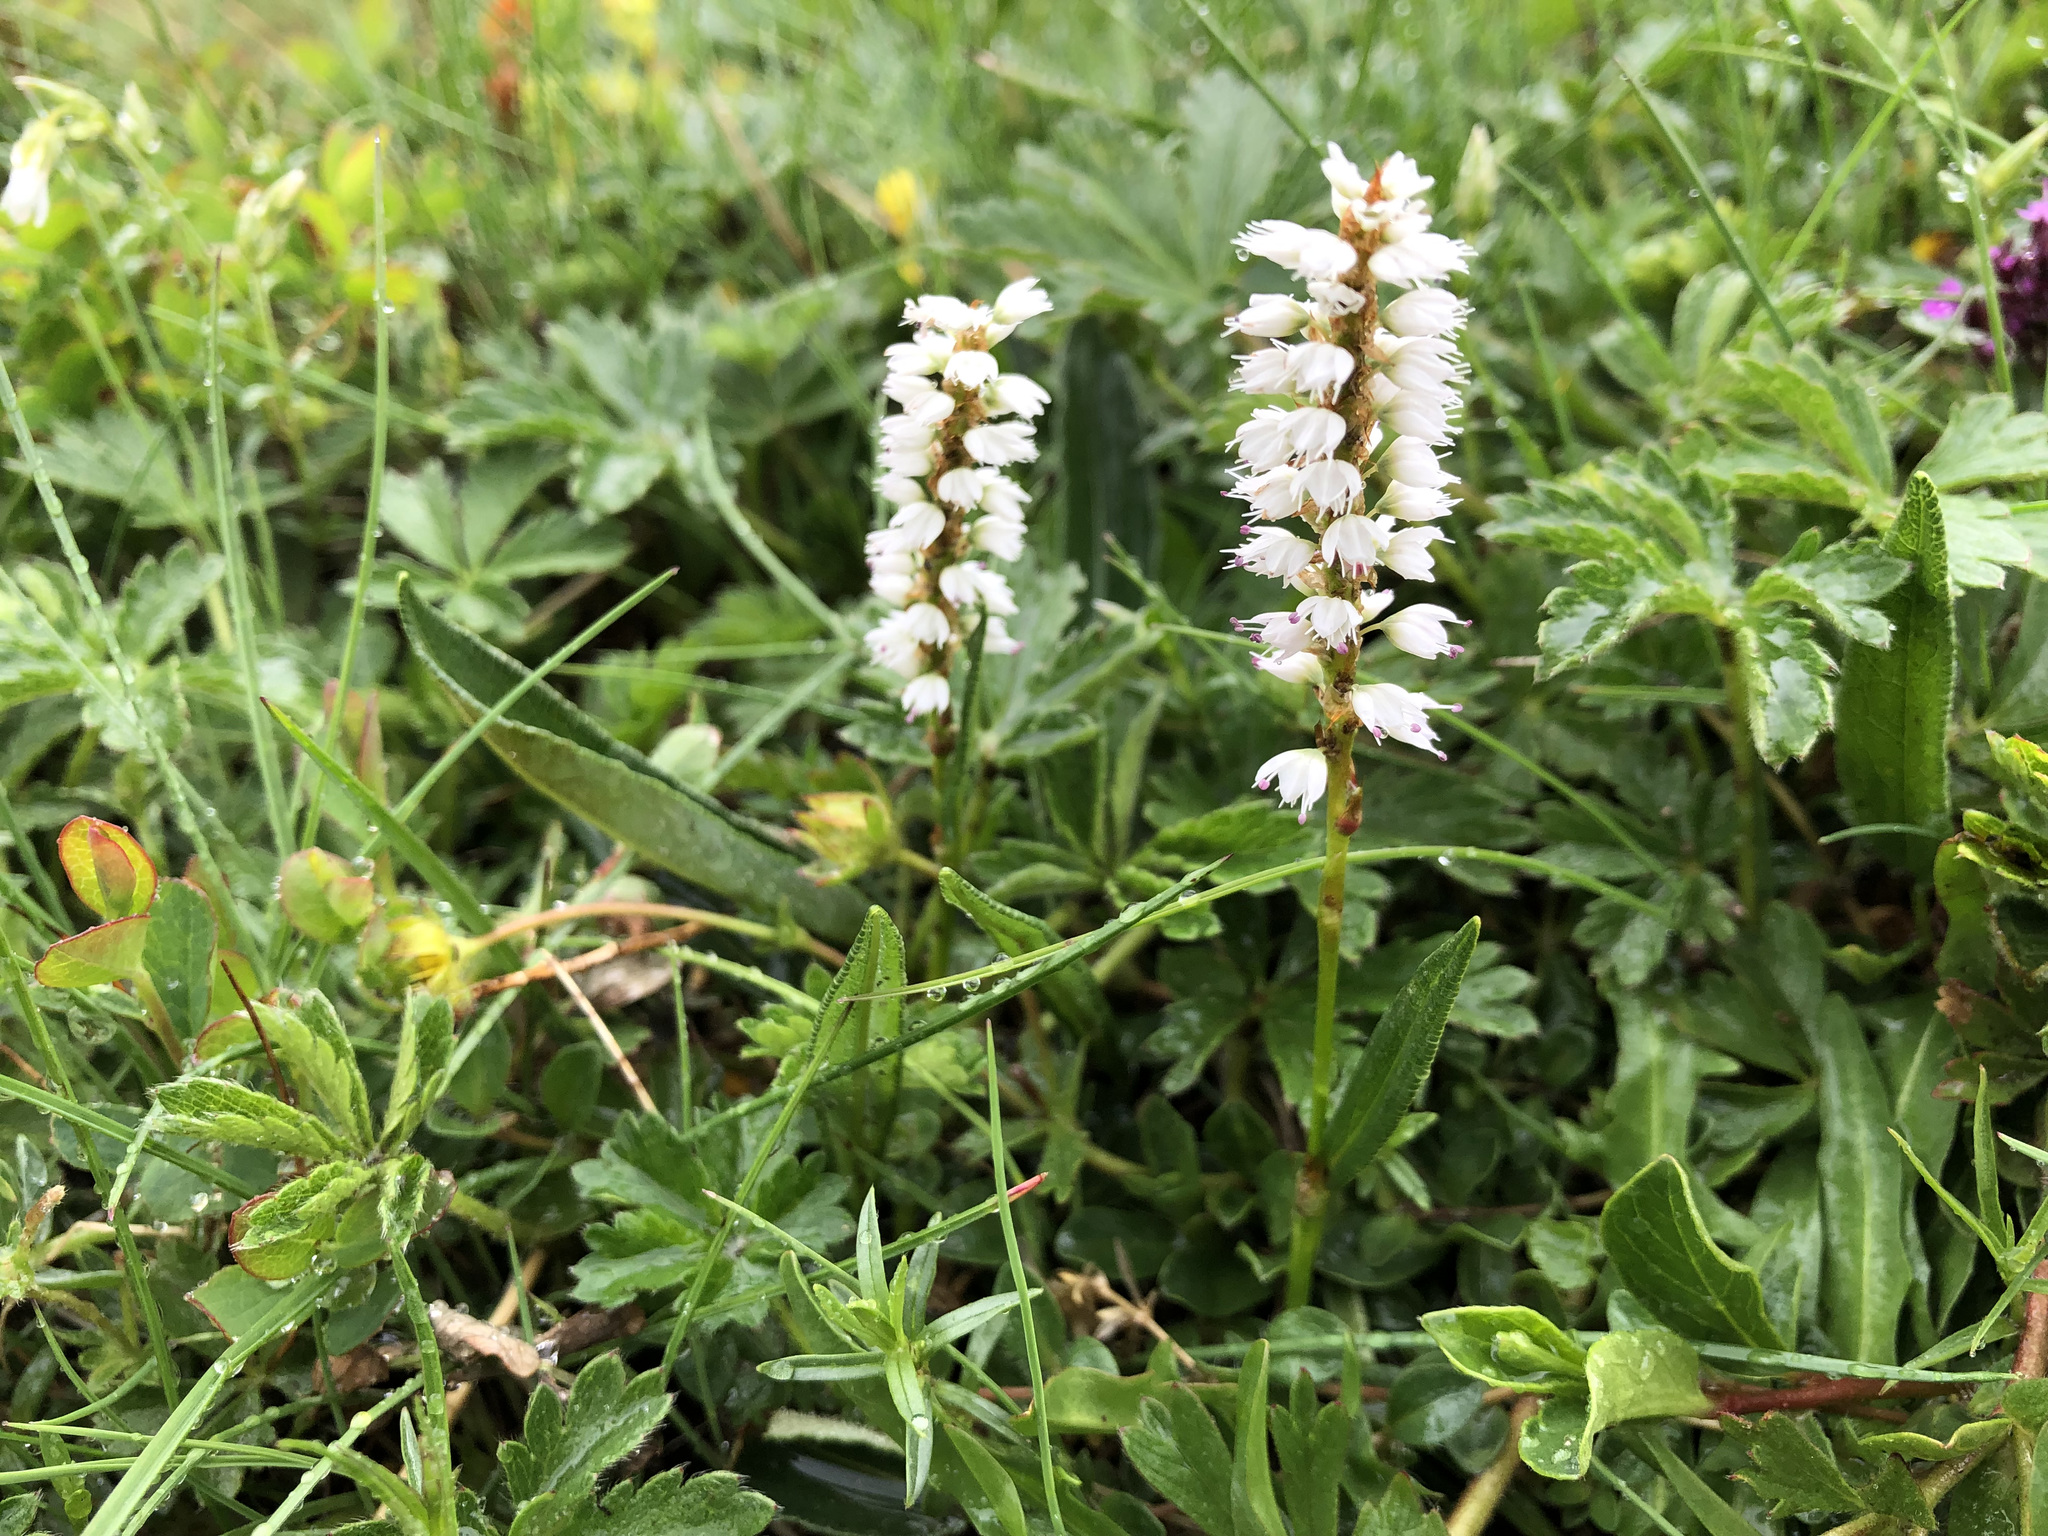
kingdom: Plantae
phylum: Tracheophyta
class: Magnoliopsida
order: Caryophyllales
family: Polygonaceae
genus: Bistorta
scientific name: Bistorta vivipara
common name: Alpine bistort
